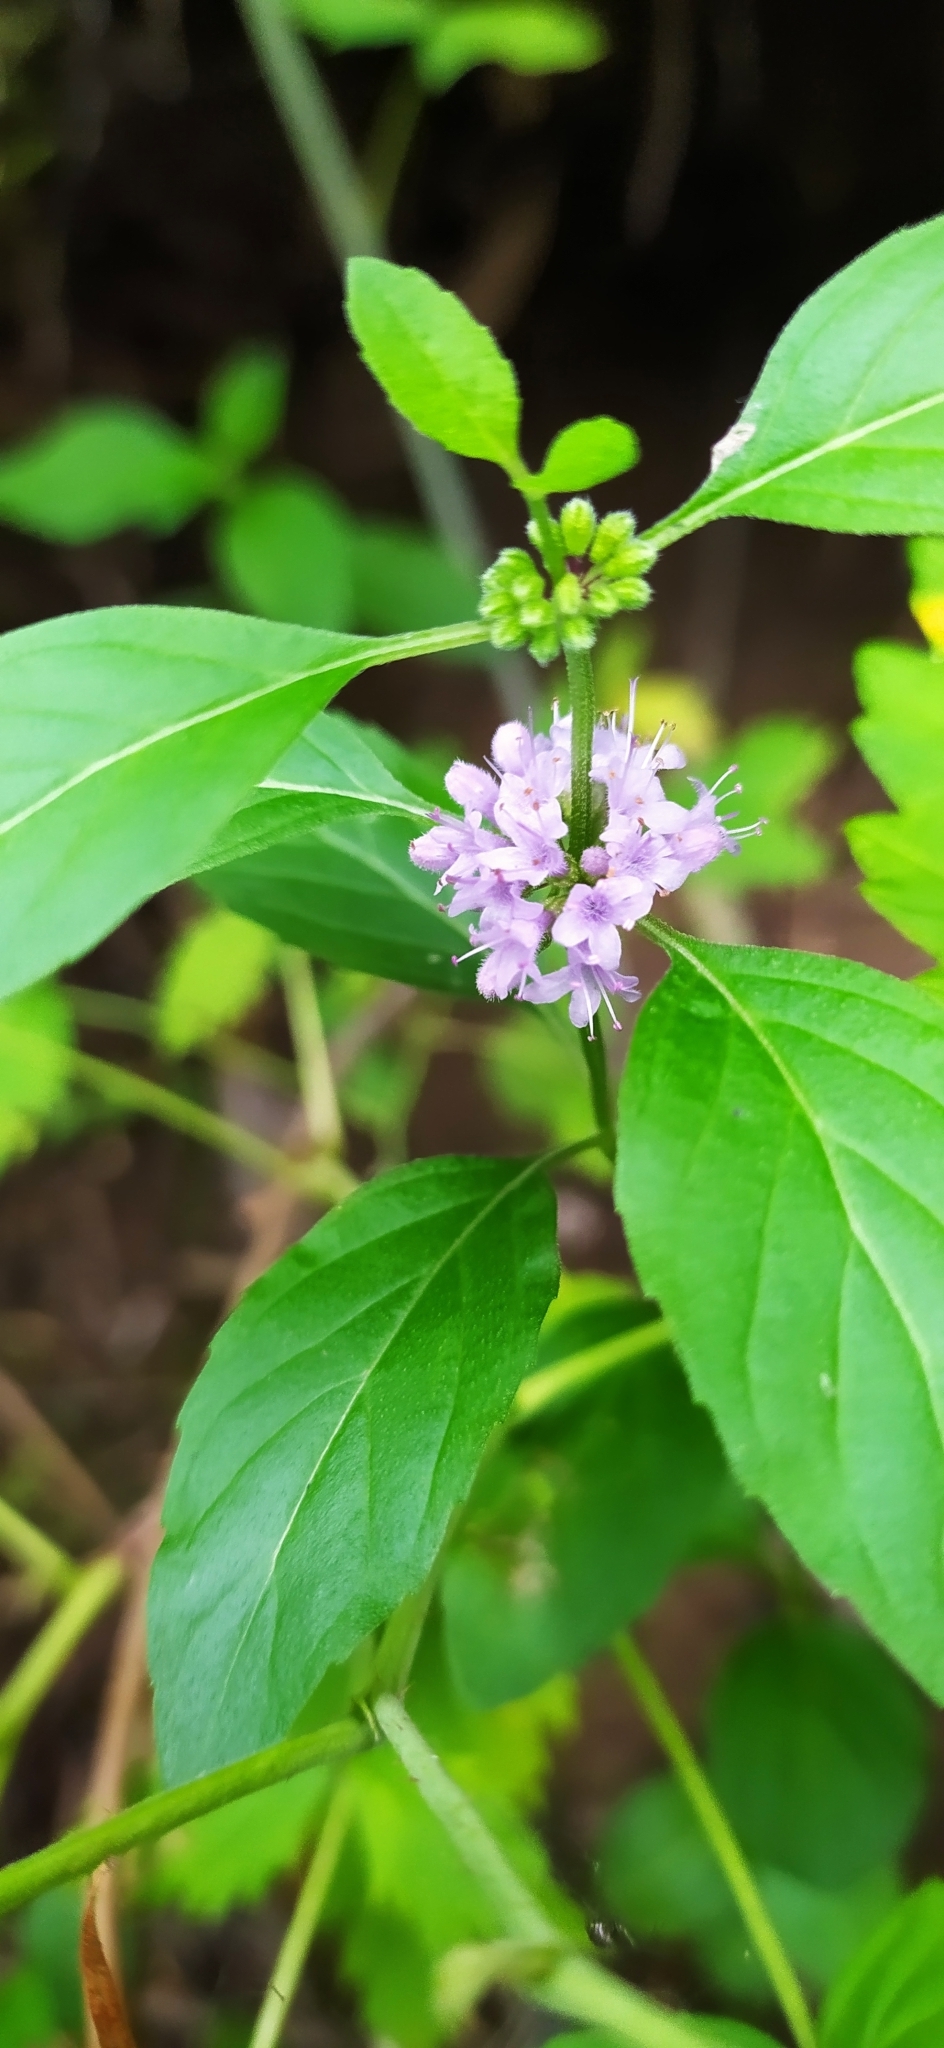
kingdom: Plantae
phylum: Tracheophyta
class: Magnoliopsida
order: Lamiales
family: Lamiaceae
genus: Mentha
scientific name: Mentha arvensis
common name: Corn mint
